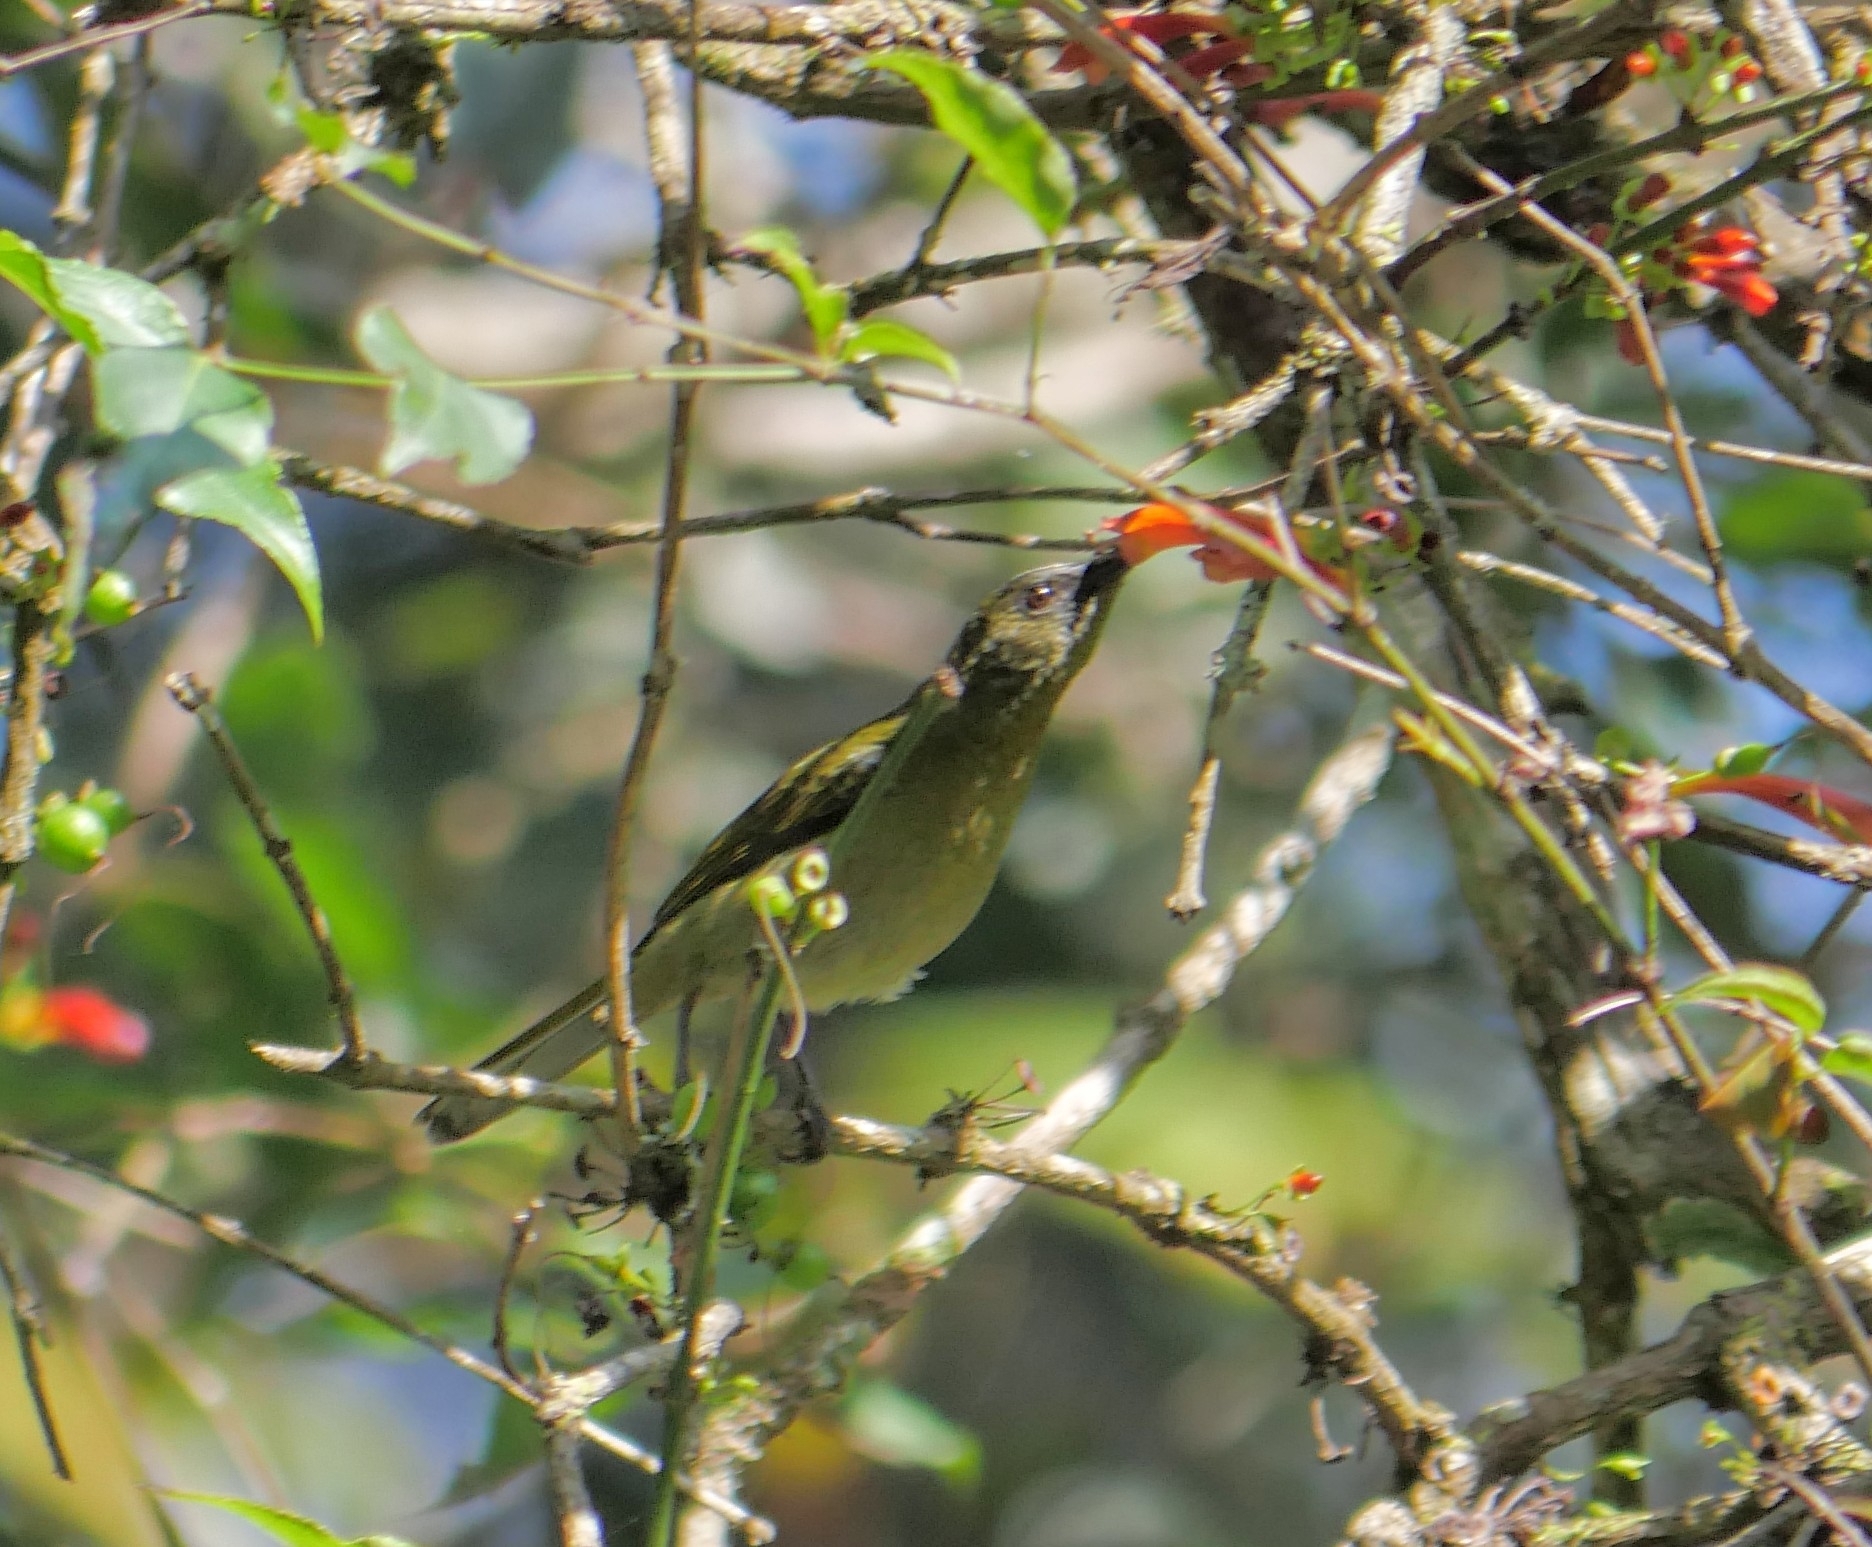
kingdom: Animalia
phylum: Chordata
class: Aves
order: Passeriformes
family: Nectariniidae
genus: Cyanomitra
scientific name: Cyanomitra olivacea
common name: Olive sunbird
